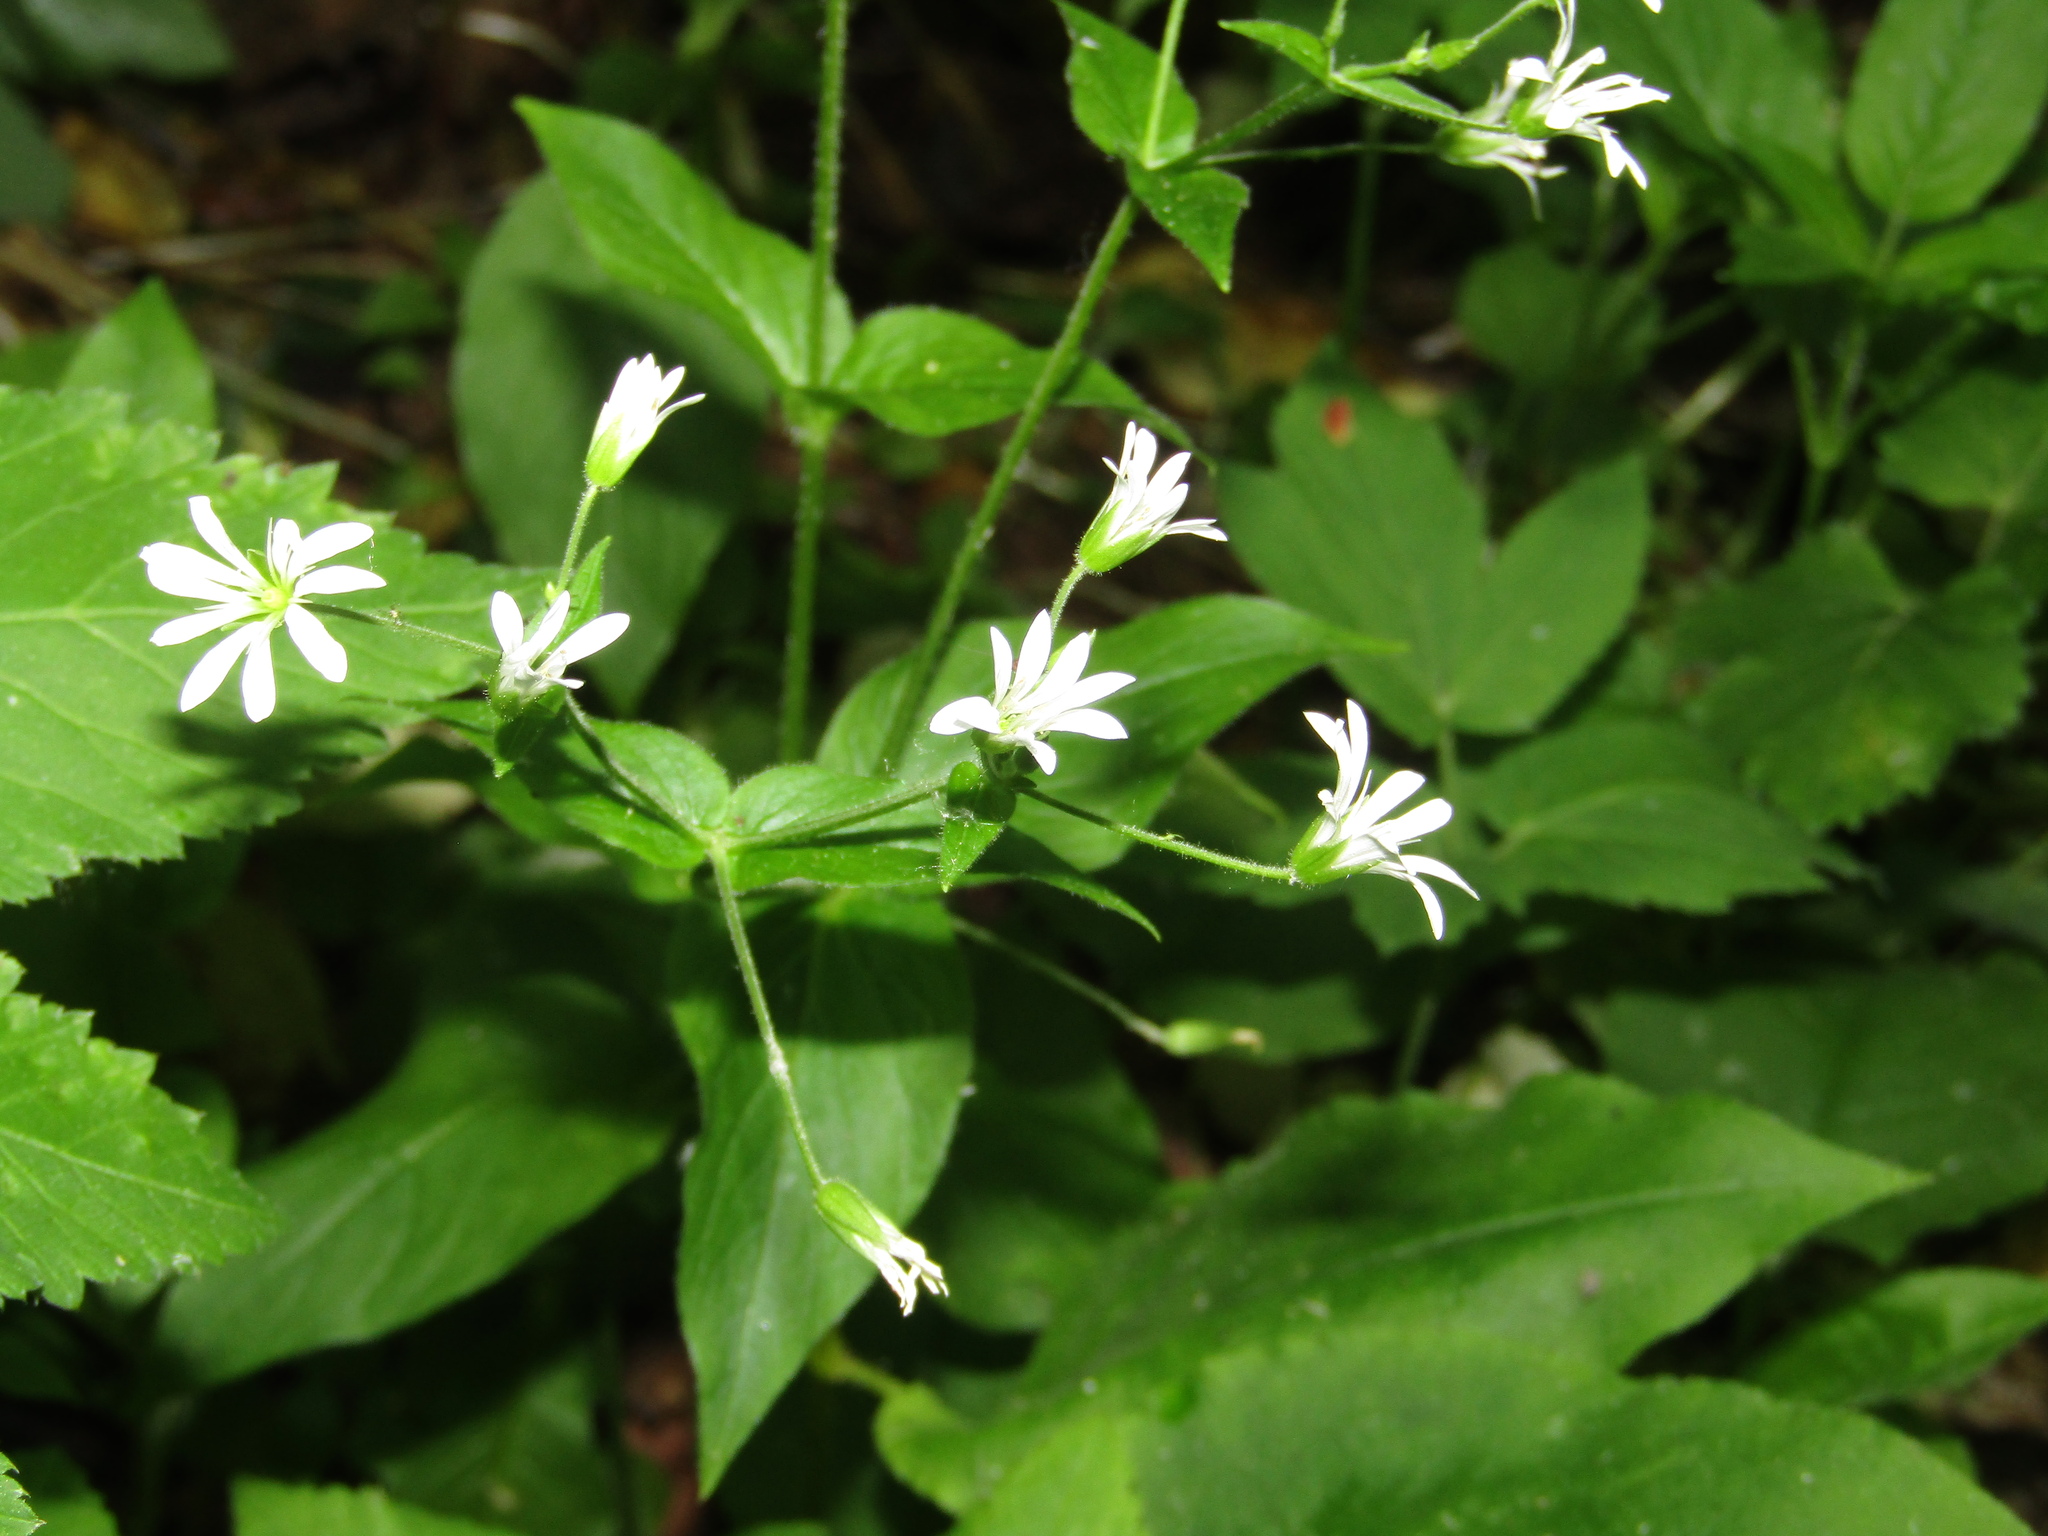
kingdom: Plantae
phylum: Tracheophyta
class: Magnoliopsida
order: Caryophyllales
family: Caryophyllaceae
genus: Stellaria
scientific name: Stellaria nemorum
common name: Wood stitchwort
